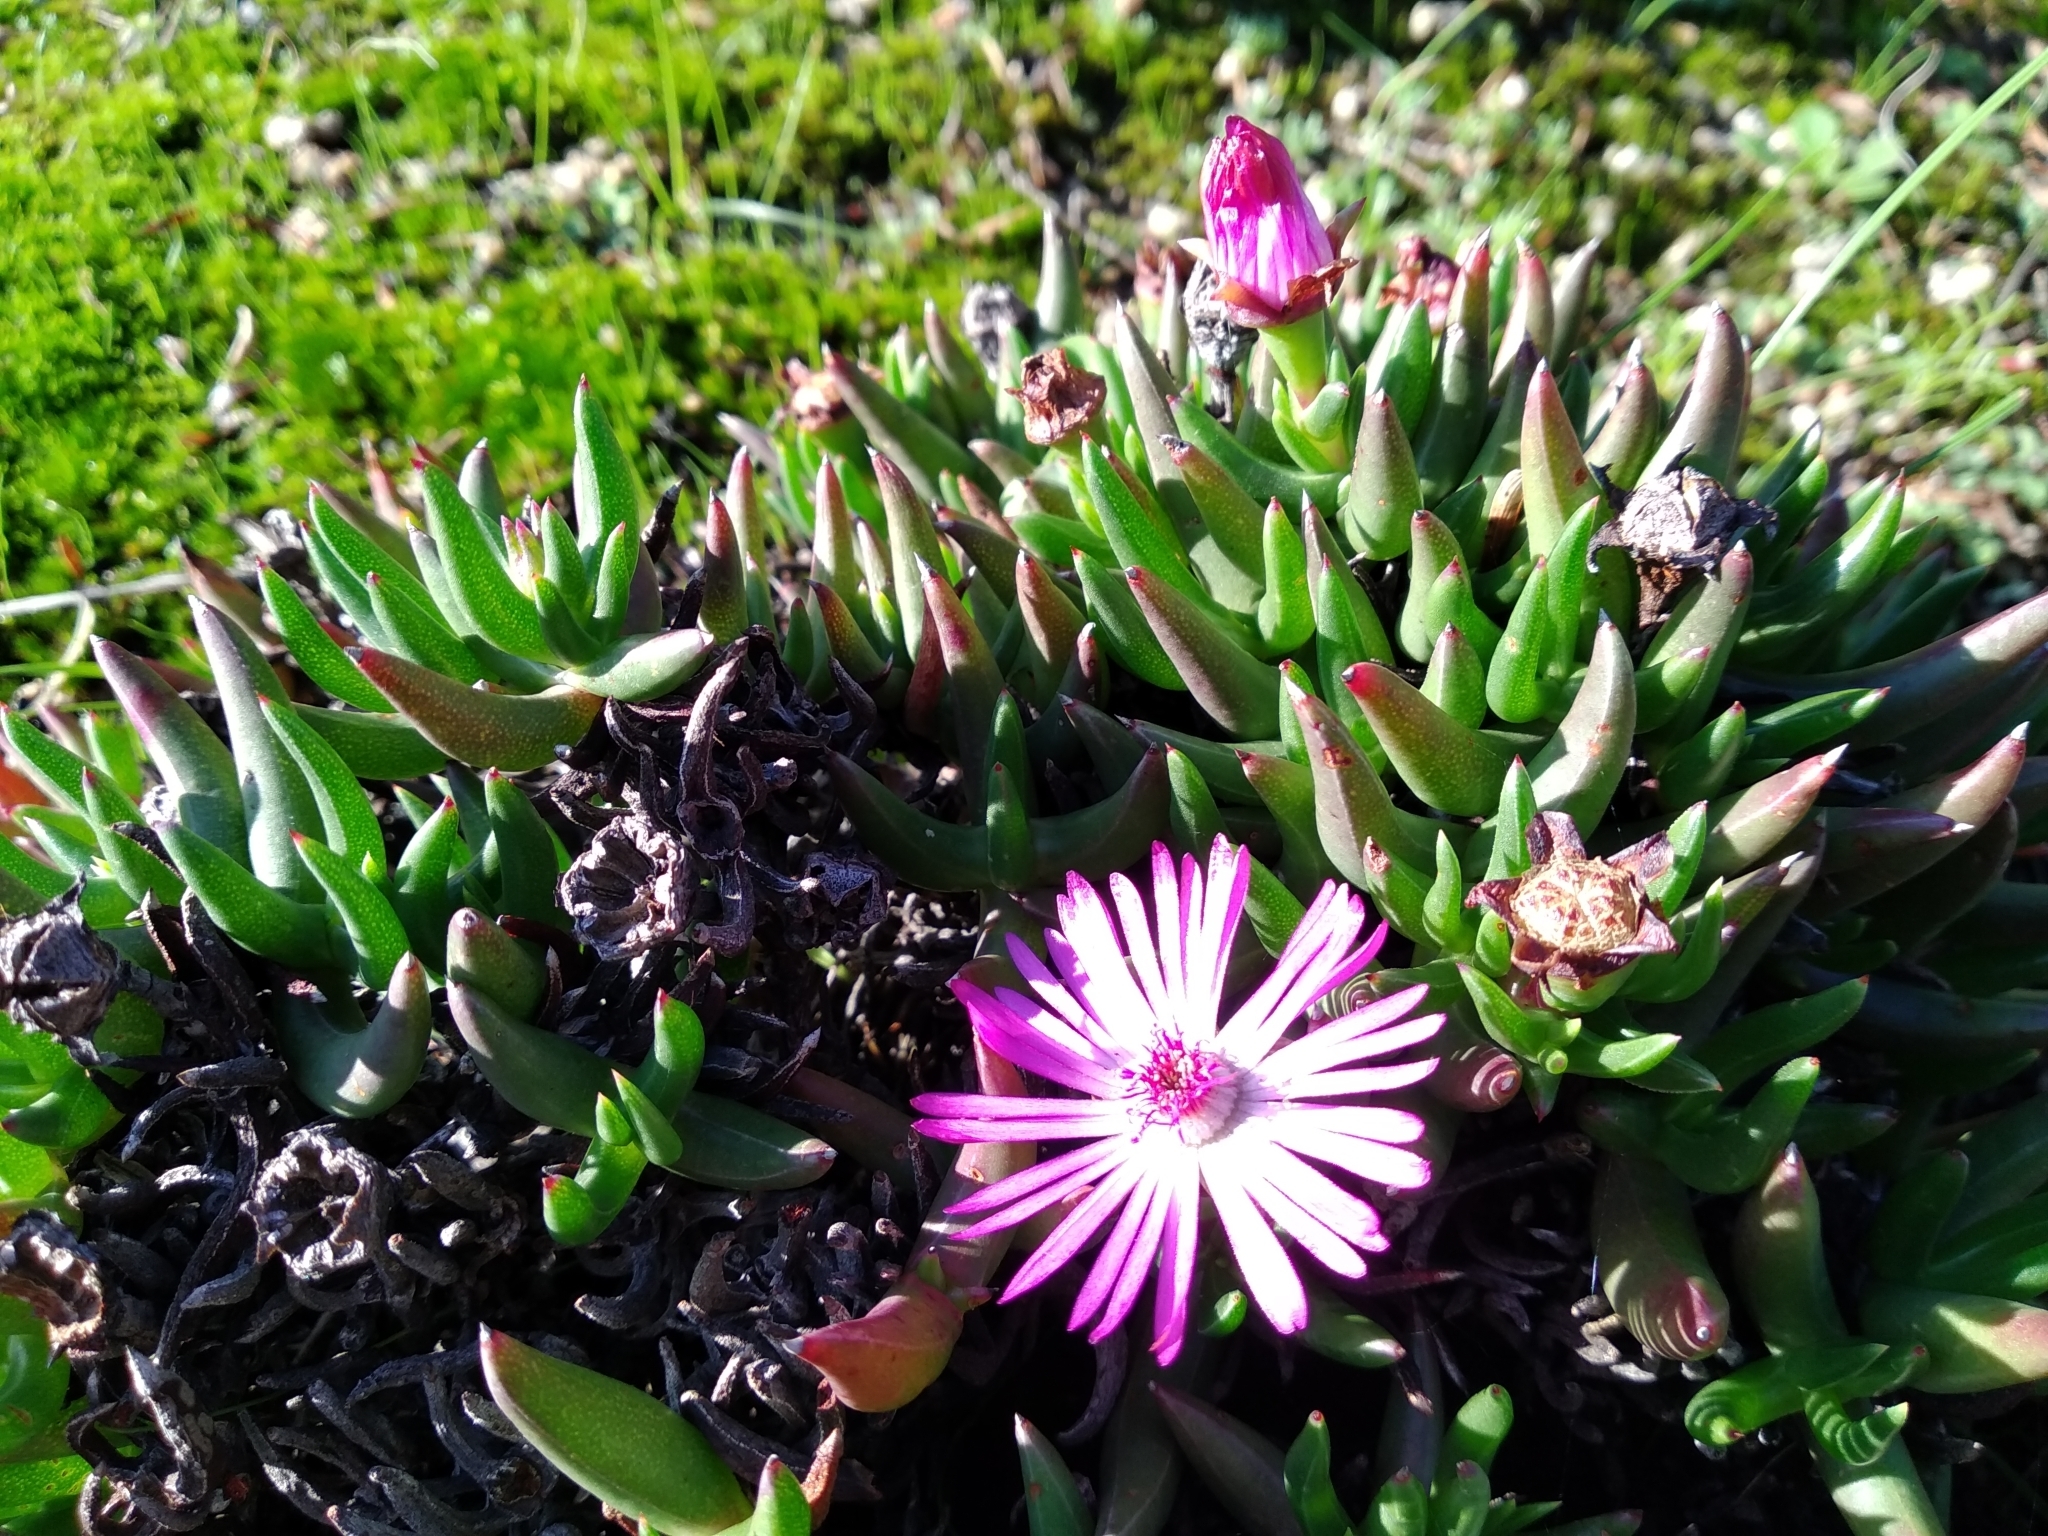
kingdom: Plantae
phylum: Tracheophyta
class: Magnoliopsida
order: Caryophyllales
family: Aizoaceae
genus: Lampranthus
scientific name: Lampranthus aduncus
